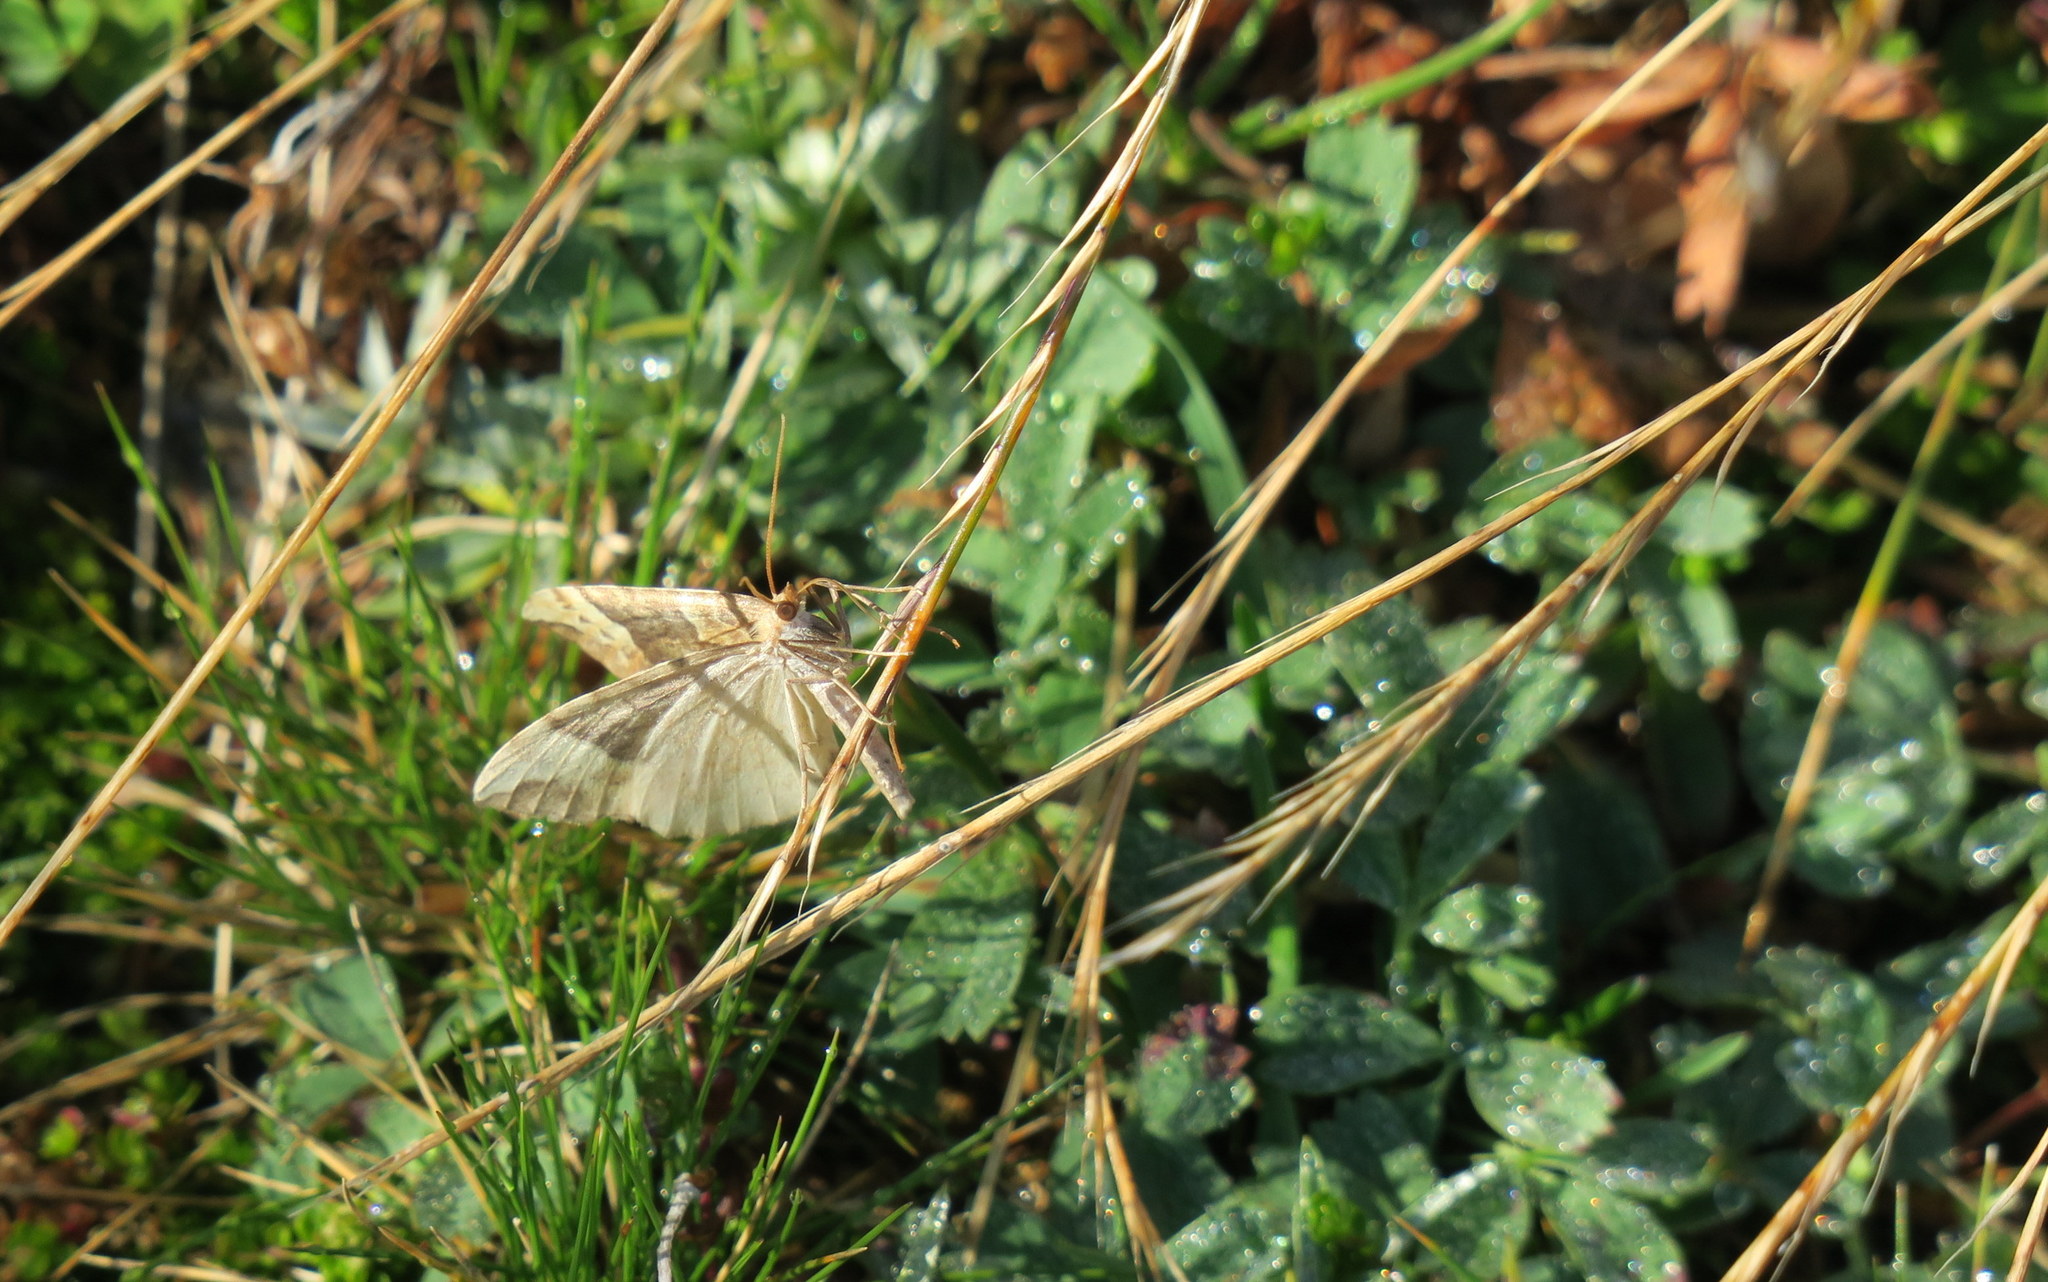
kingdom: Animalia
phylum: Arthropoda
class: Insecta
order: Lepidoptera
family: Geometridae
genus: Eulithis
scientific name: Eulithis populata
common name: Northern spinach
